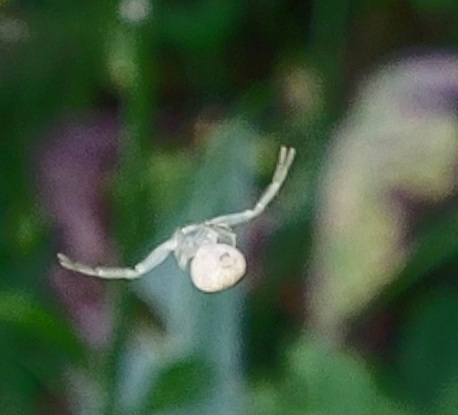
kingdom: Animalia
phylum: Arthropoda
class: Arachnida
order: Araneae
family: Thomisidae
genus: Misumena
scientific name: Misumena vatia
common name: Goldenrod crab spider
